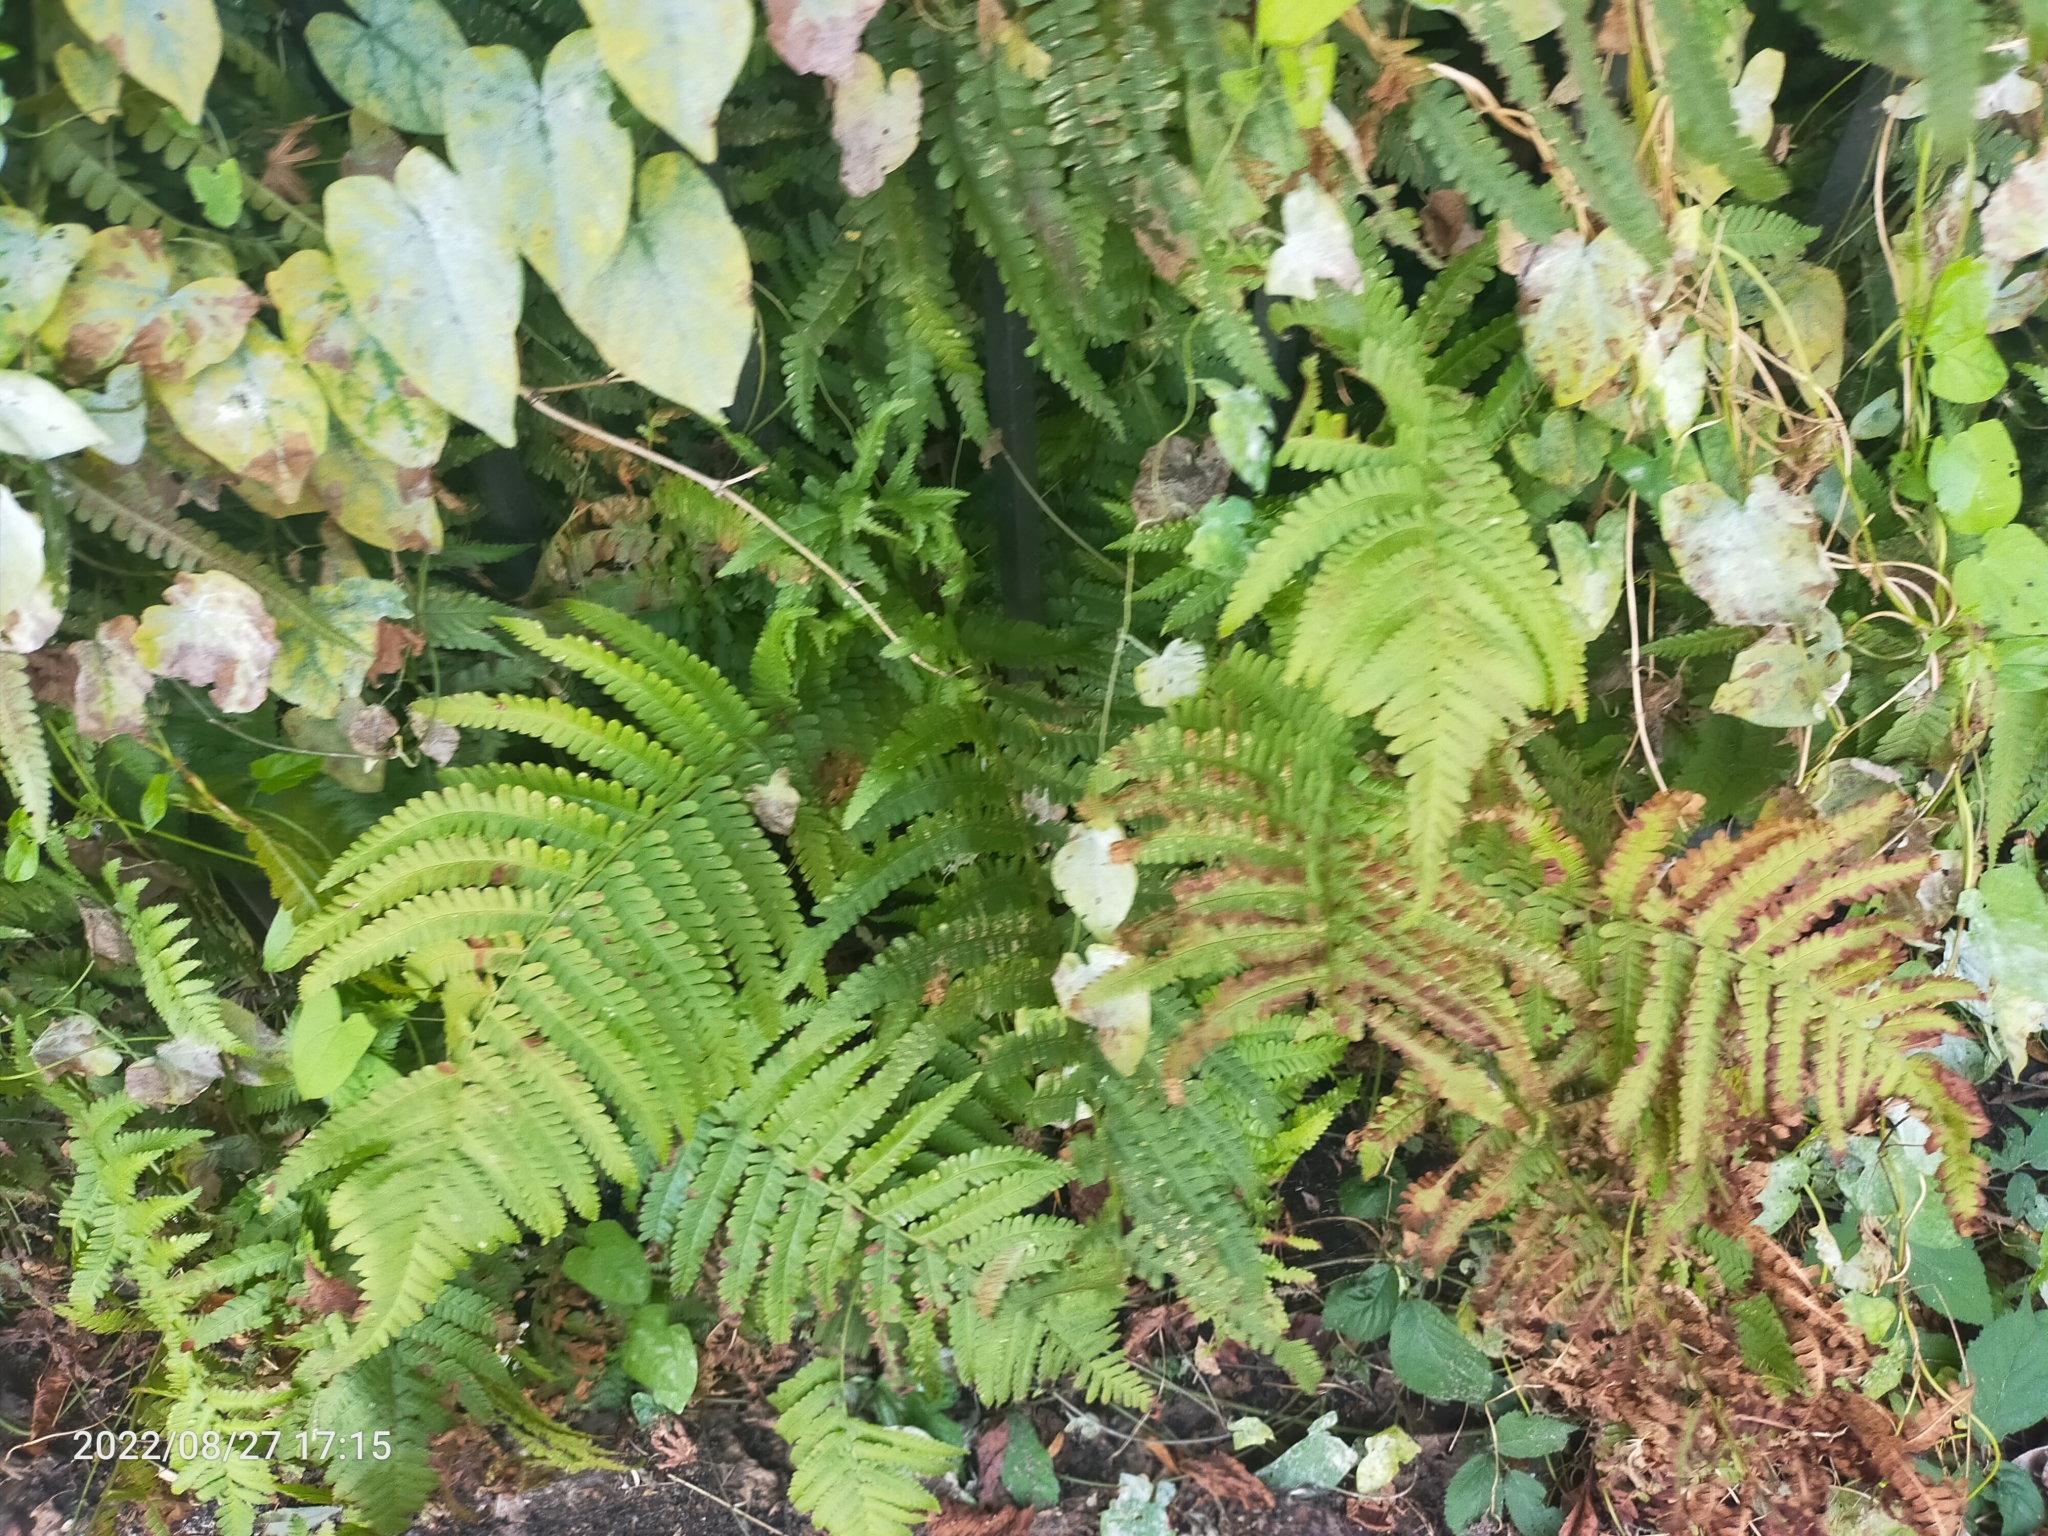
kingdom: Plantae
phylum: Tracheophyta
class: Polypodiopsida
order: Polypodiales
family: Dennstaedtiaceae
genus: Pteridium
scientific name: Pteridium aquilinum
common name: Bracken
